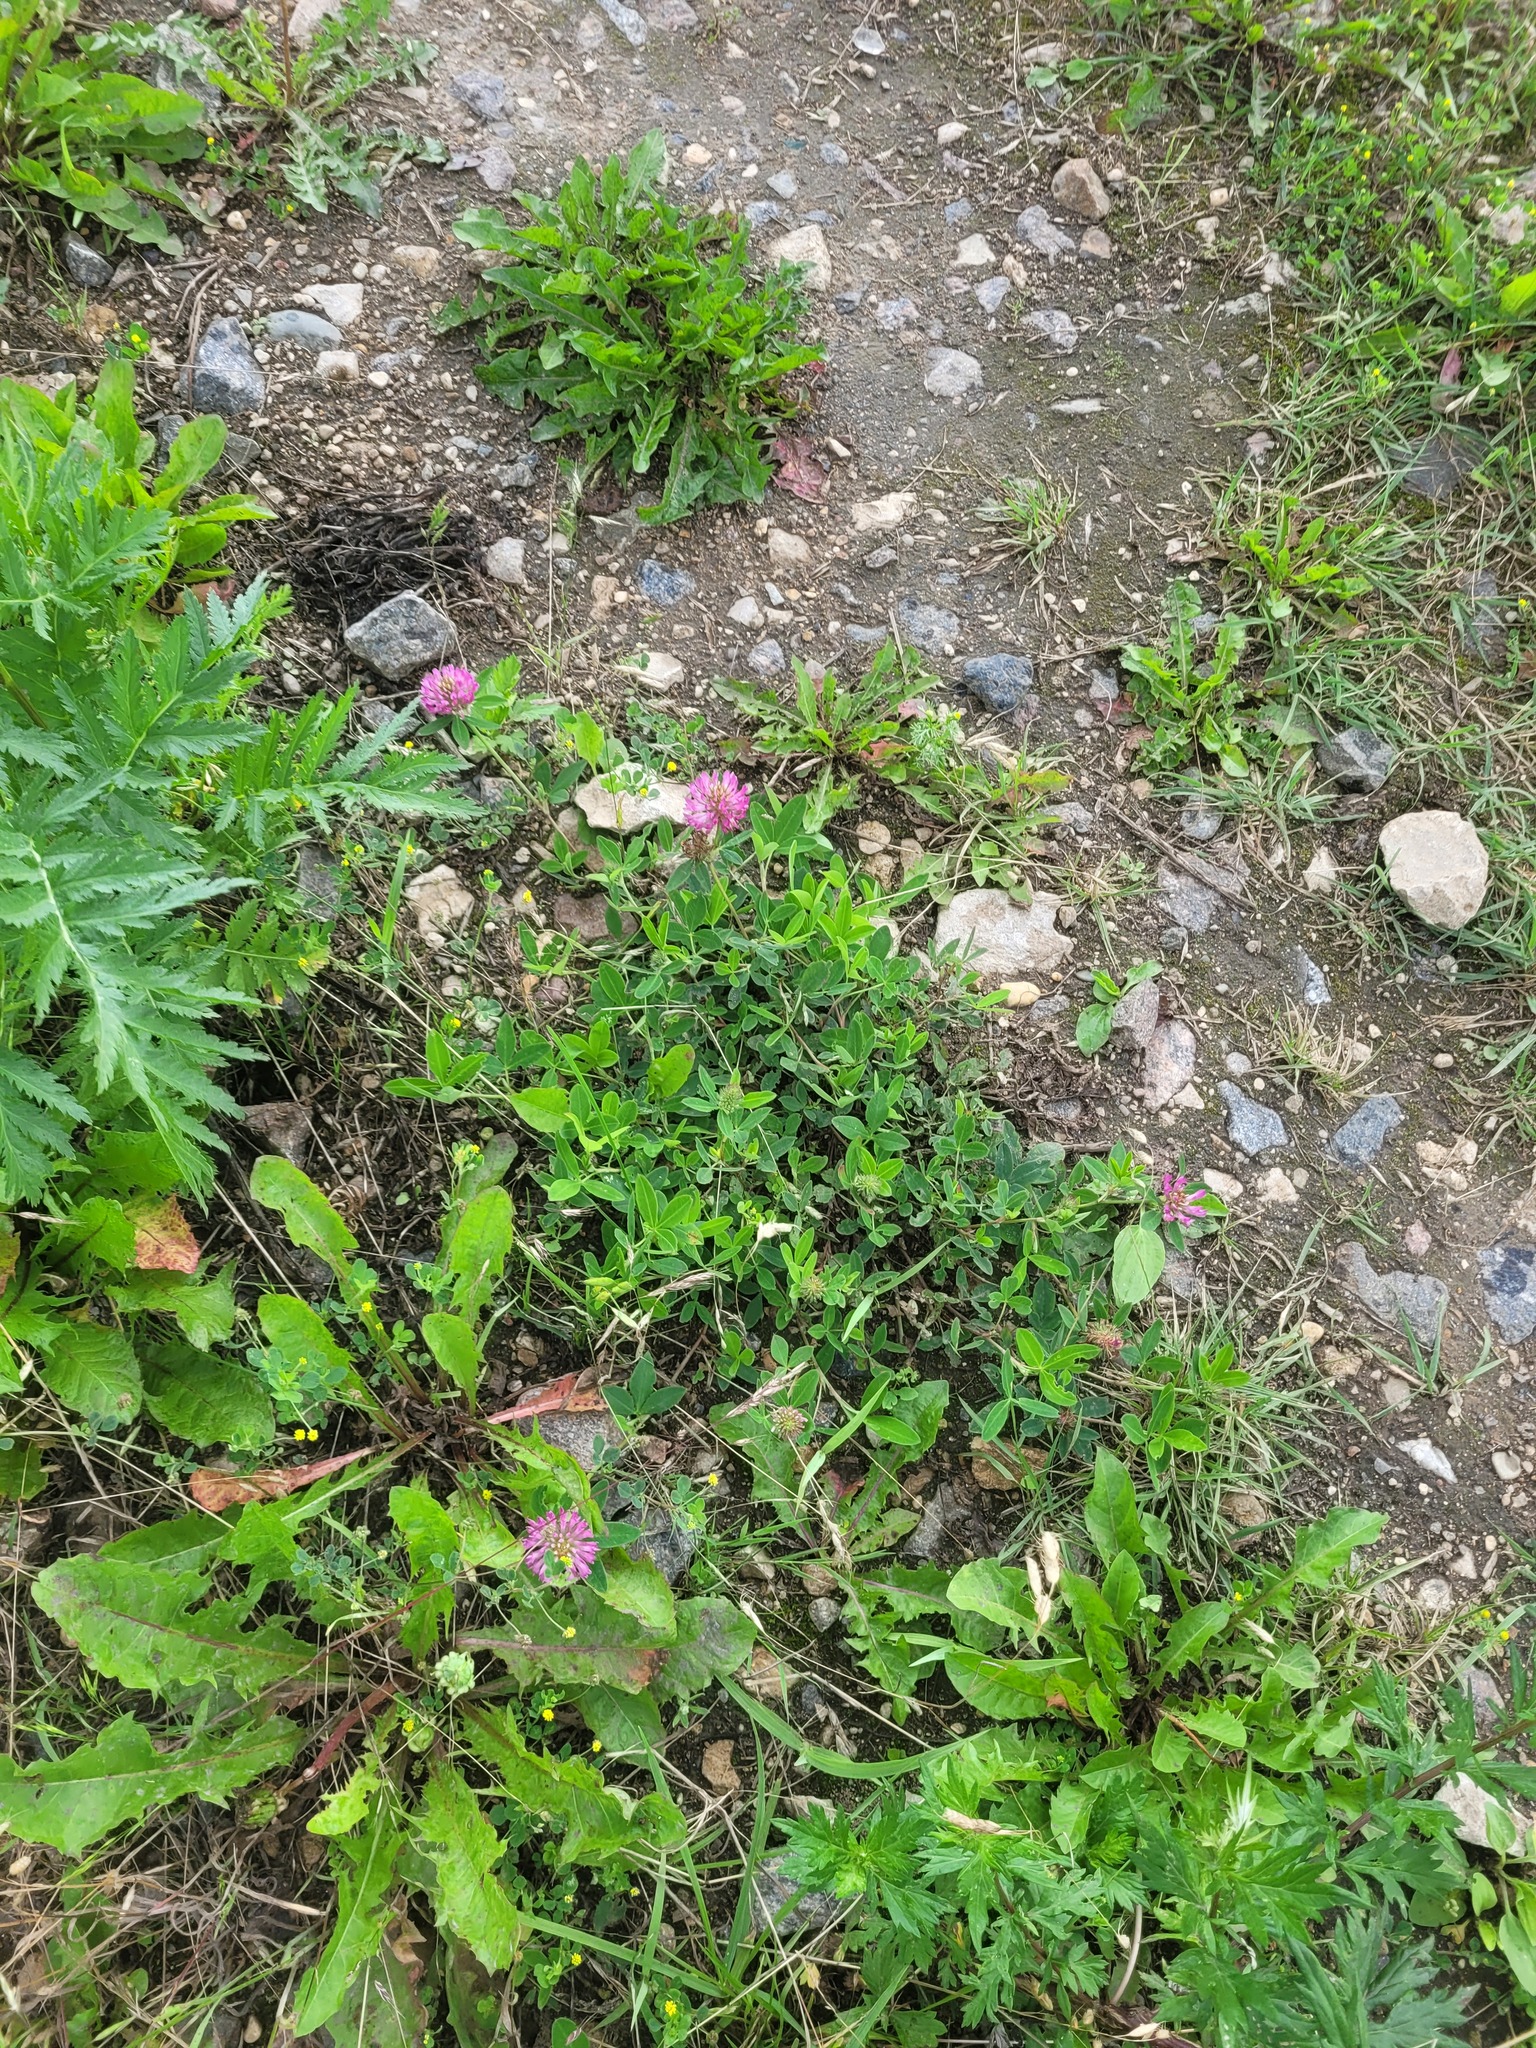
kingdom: Plantae
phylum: Tracheophyta
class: Magnoliopsida
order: Fabales
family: Fabaceae
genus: Trifolium
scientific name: Trifolium medium
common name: Zigzag clover
